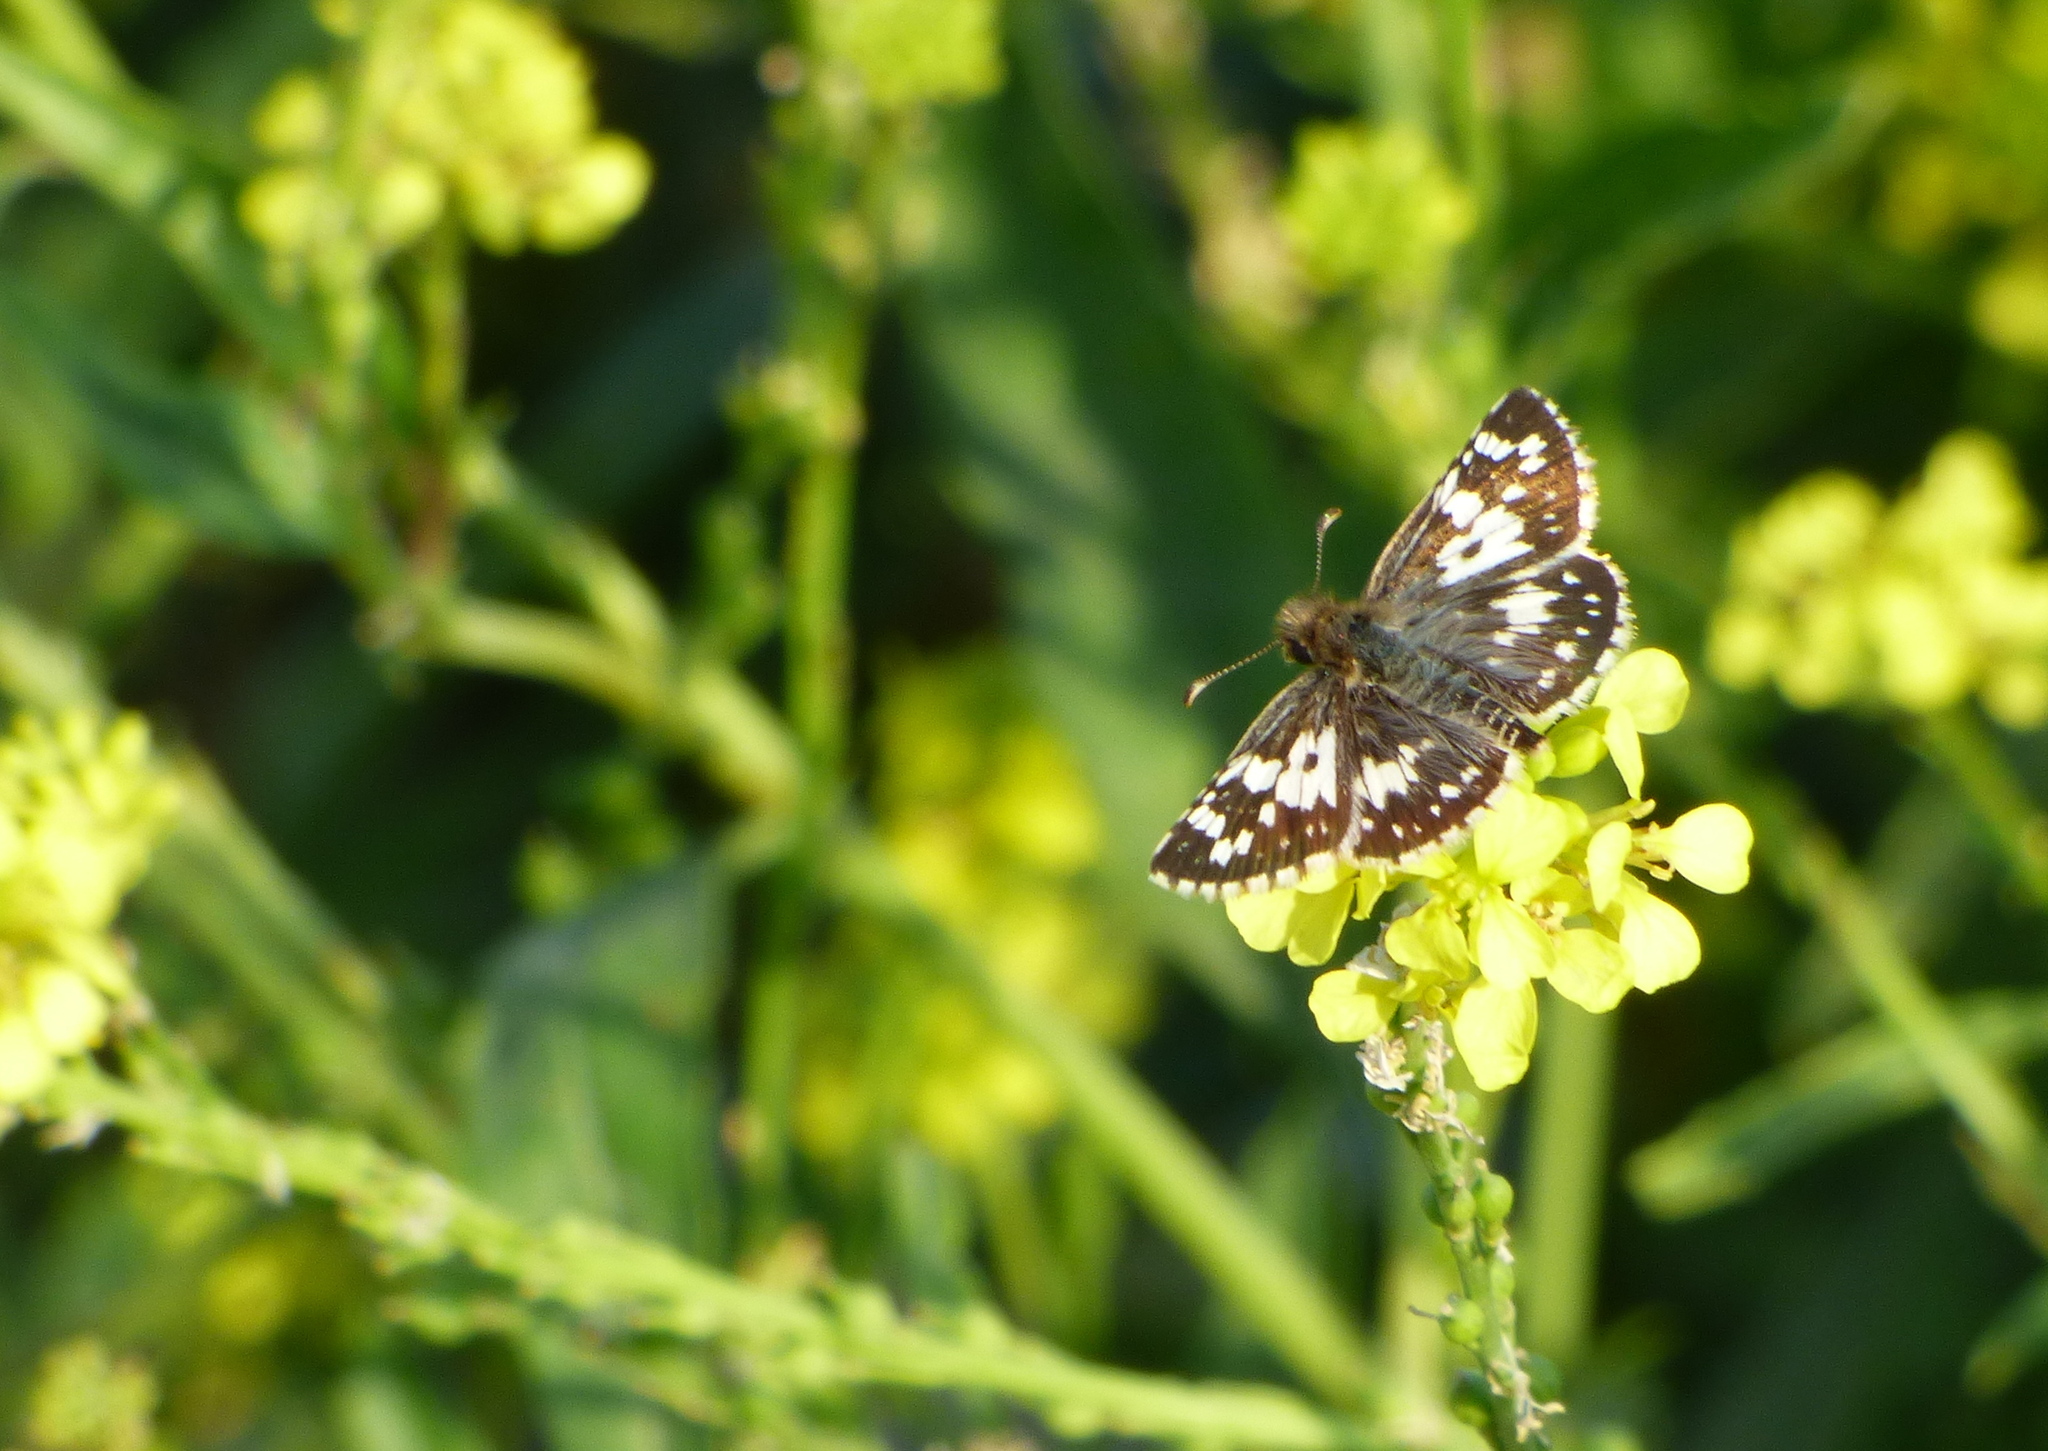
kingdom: Animalia
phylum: Arthropoda
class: Insecta
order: Lepidoptera
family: Hesperiidae
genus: Burnsius
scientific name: Burnsius orcynoides
